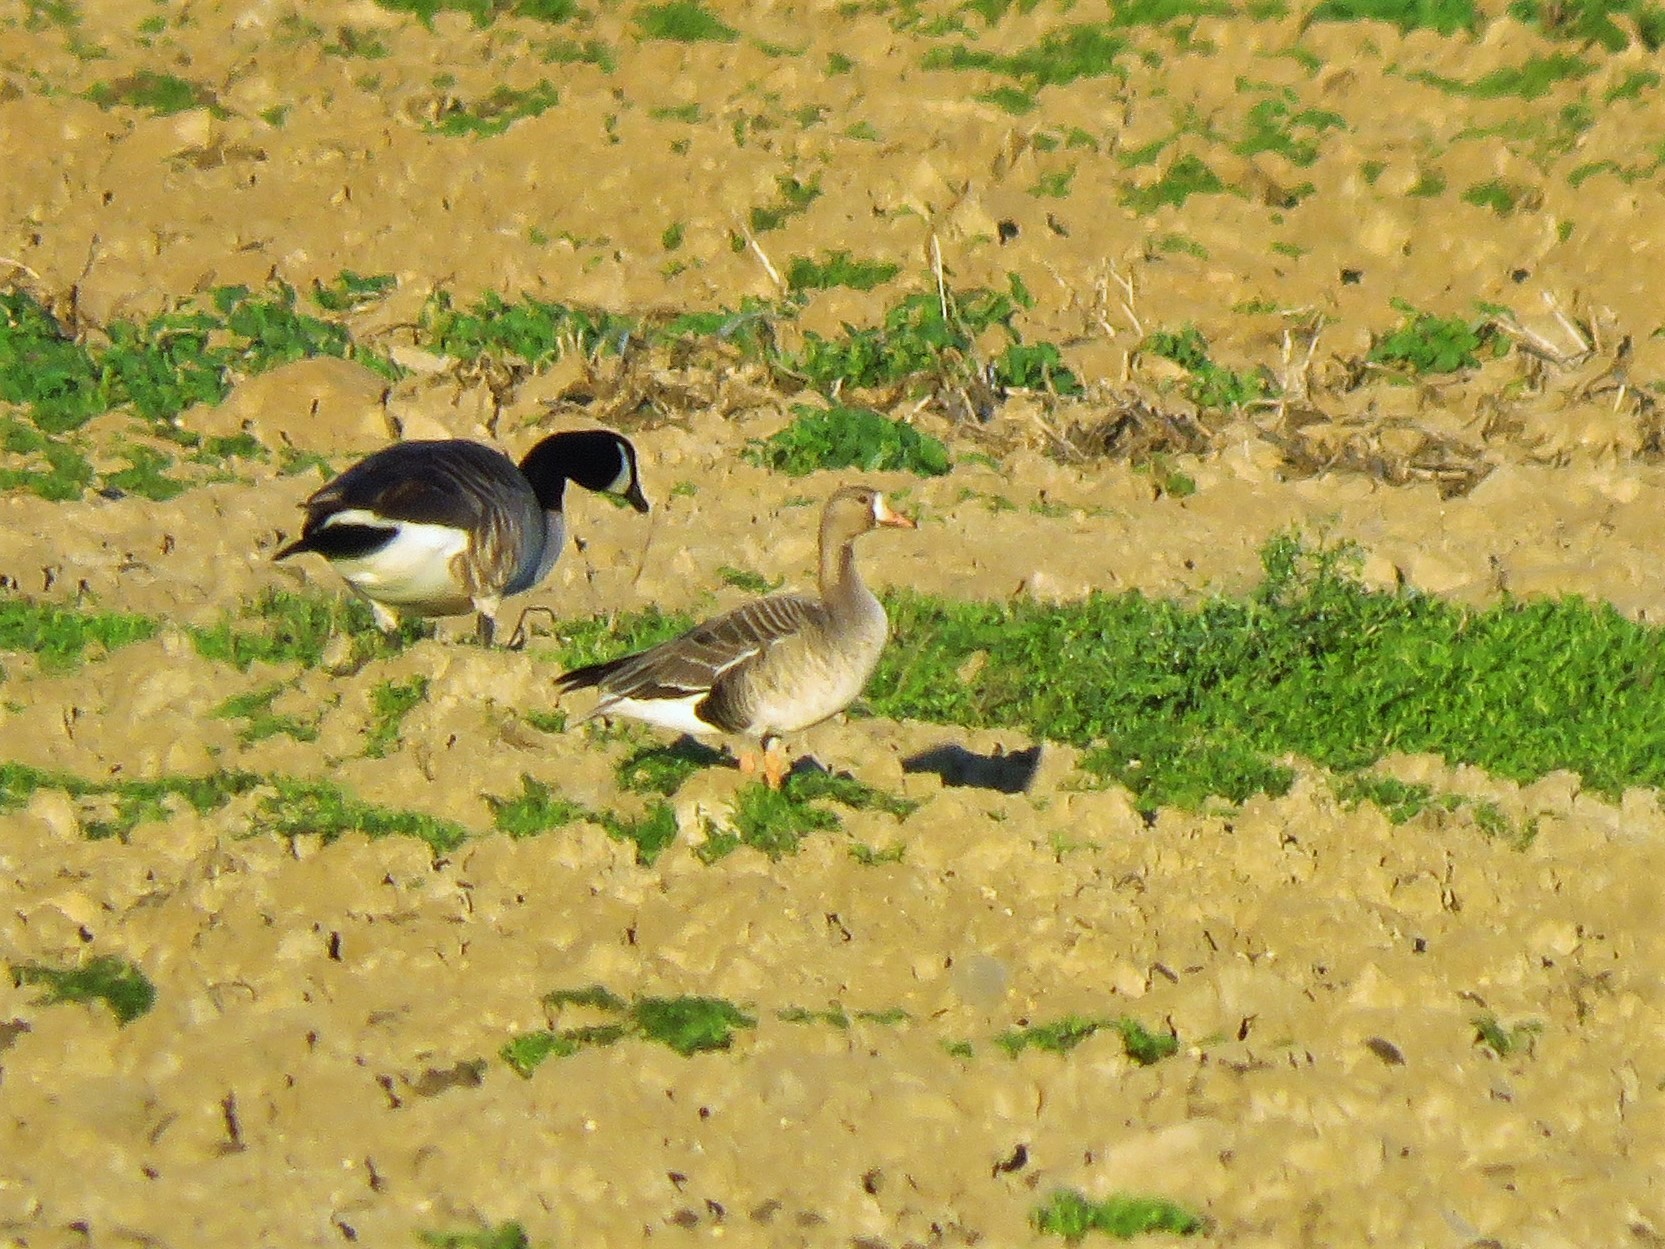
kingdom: Animalia
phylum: Chordata
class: Aves
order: Anseriformes
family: Anatidae
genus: Anser
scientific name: Anser albifrons
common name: Greater white-fronted goose
